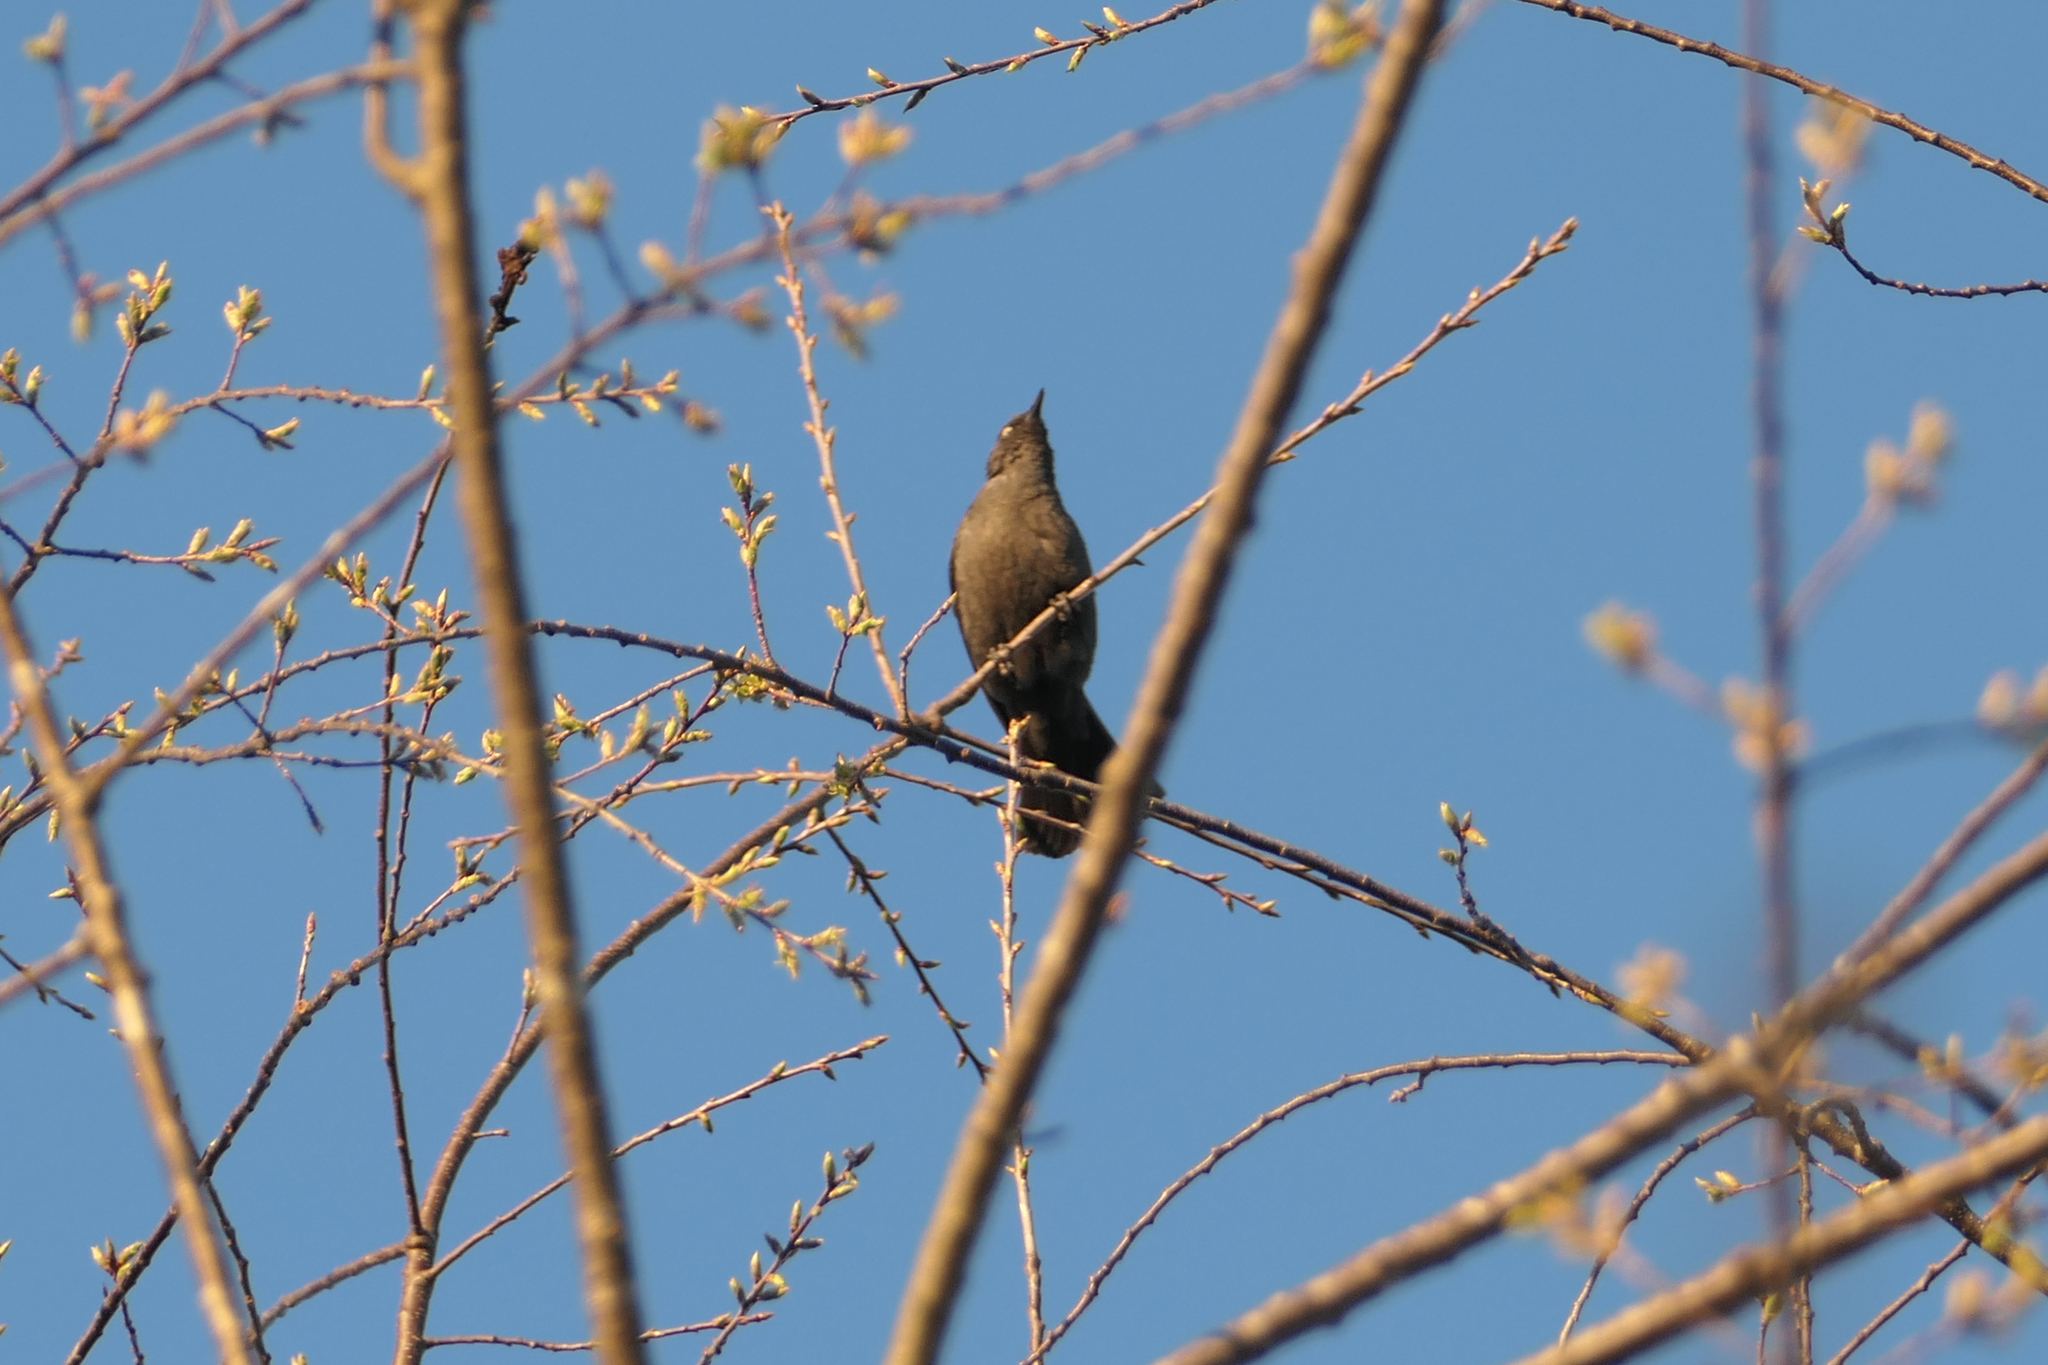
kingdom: Animalia
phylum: Chordata
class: Aves
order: Passeriformes
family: Icteridae
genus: Euphagus
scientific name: Euphagus carolinus
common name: Rusty blackbird
